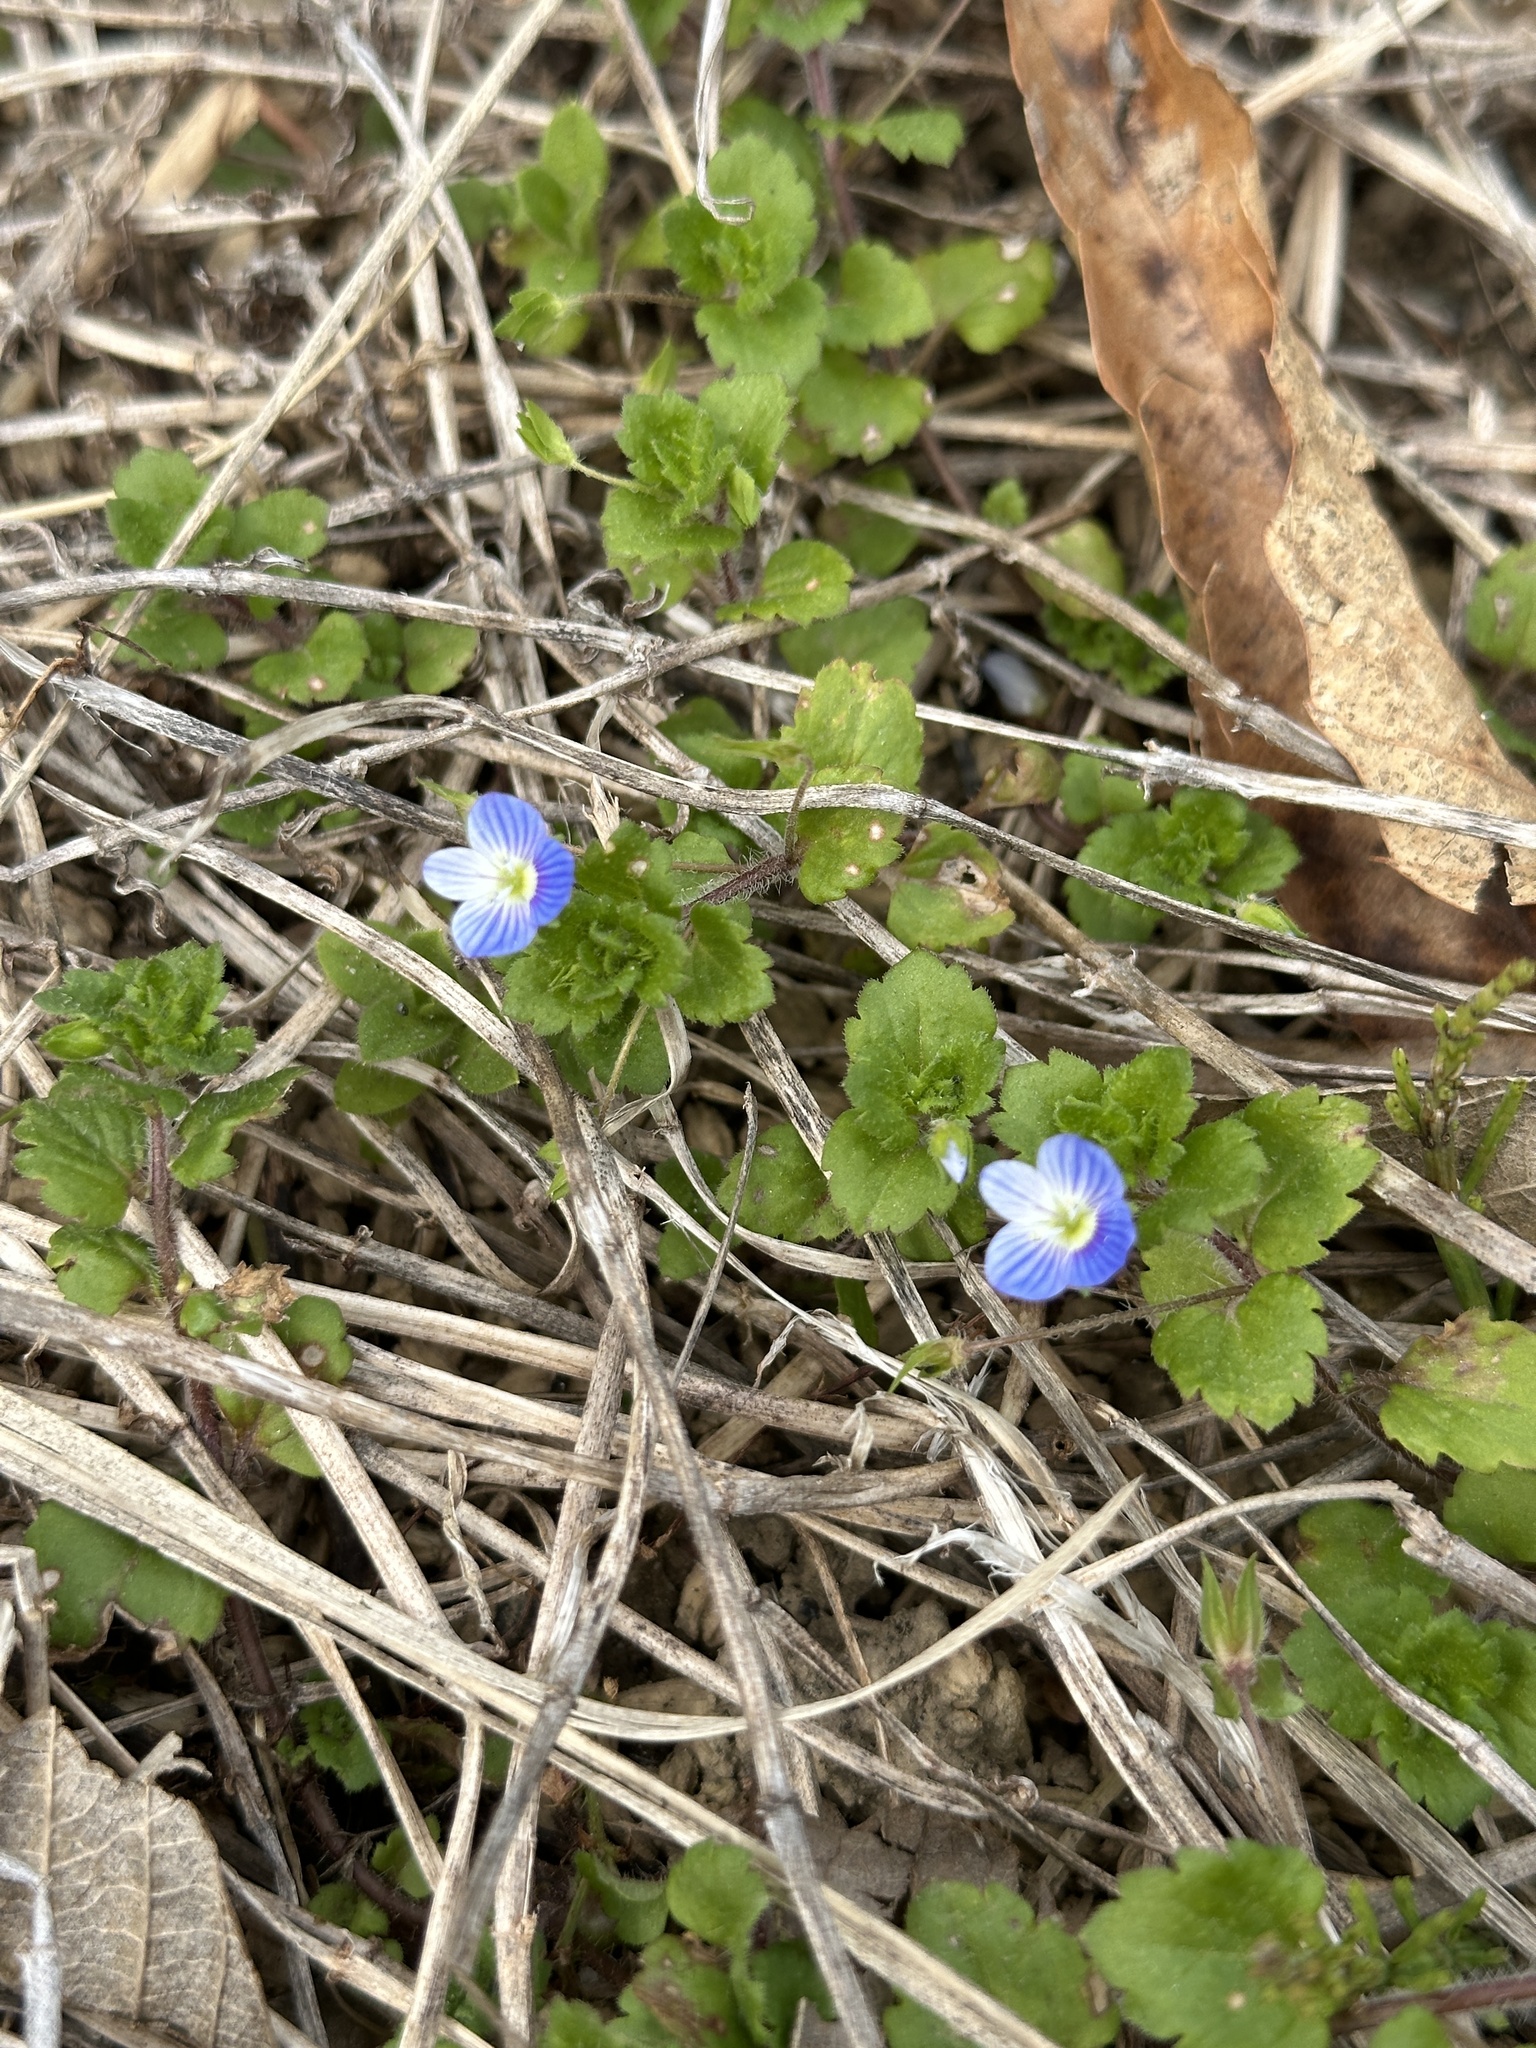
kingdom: Plantae
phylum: Tracheophyta
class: Magnoliopsida
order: Lamiales
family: Plantaginaceae
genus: Veronica
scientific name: Veronica persica
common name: Common field-speedwell
